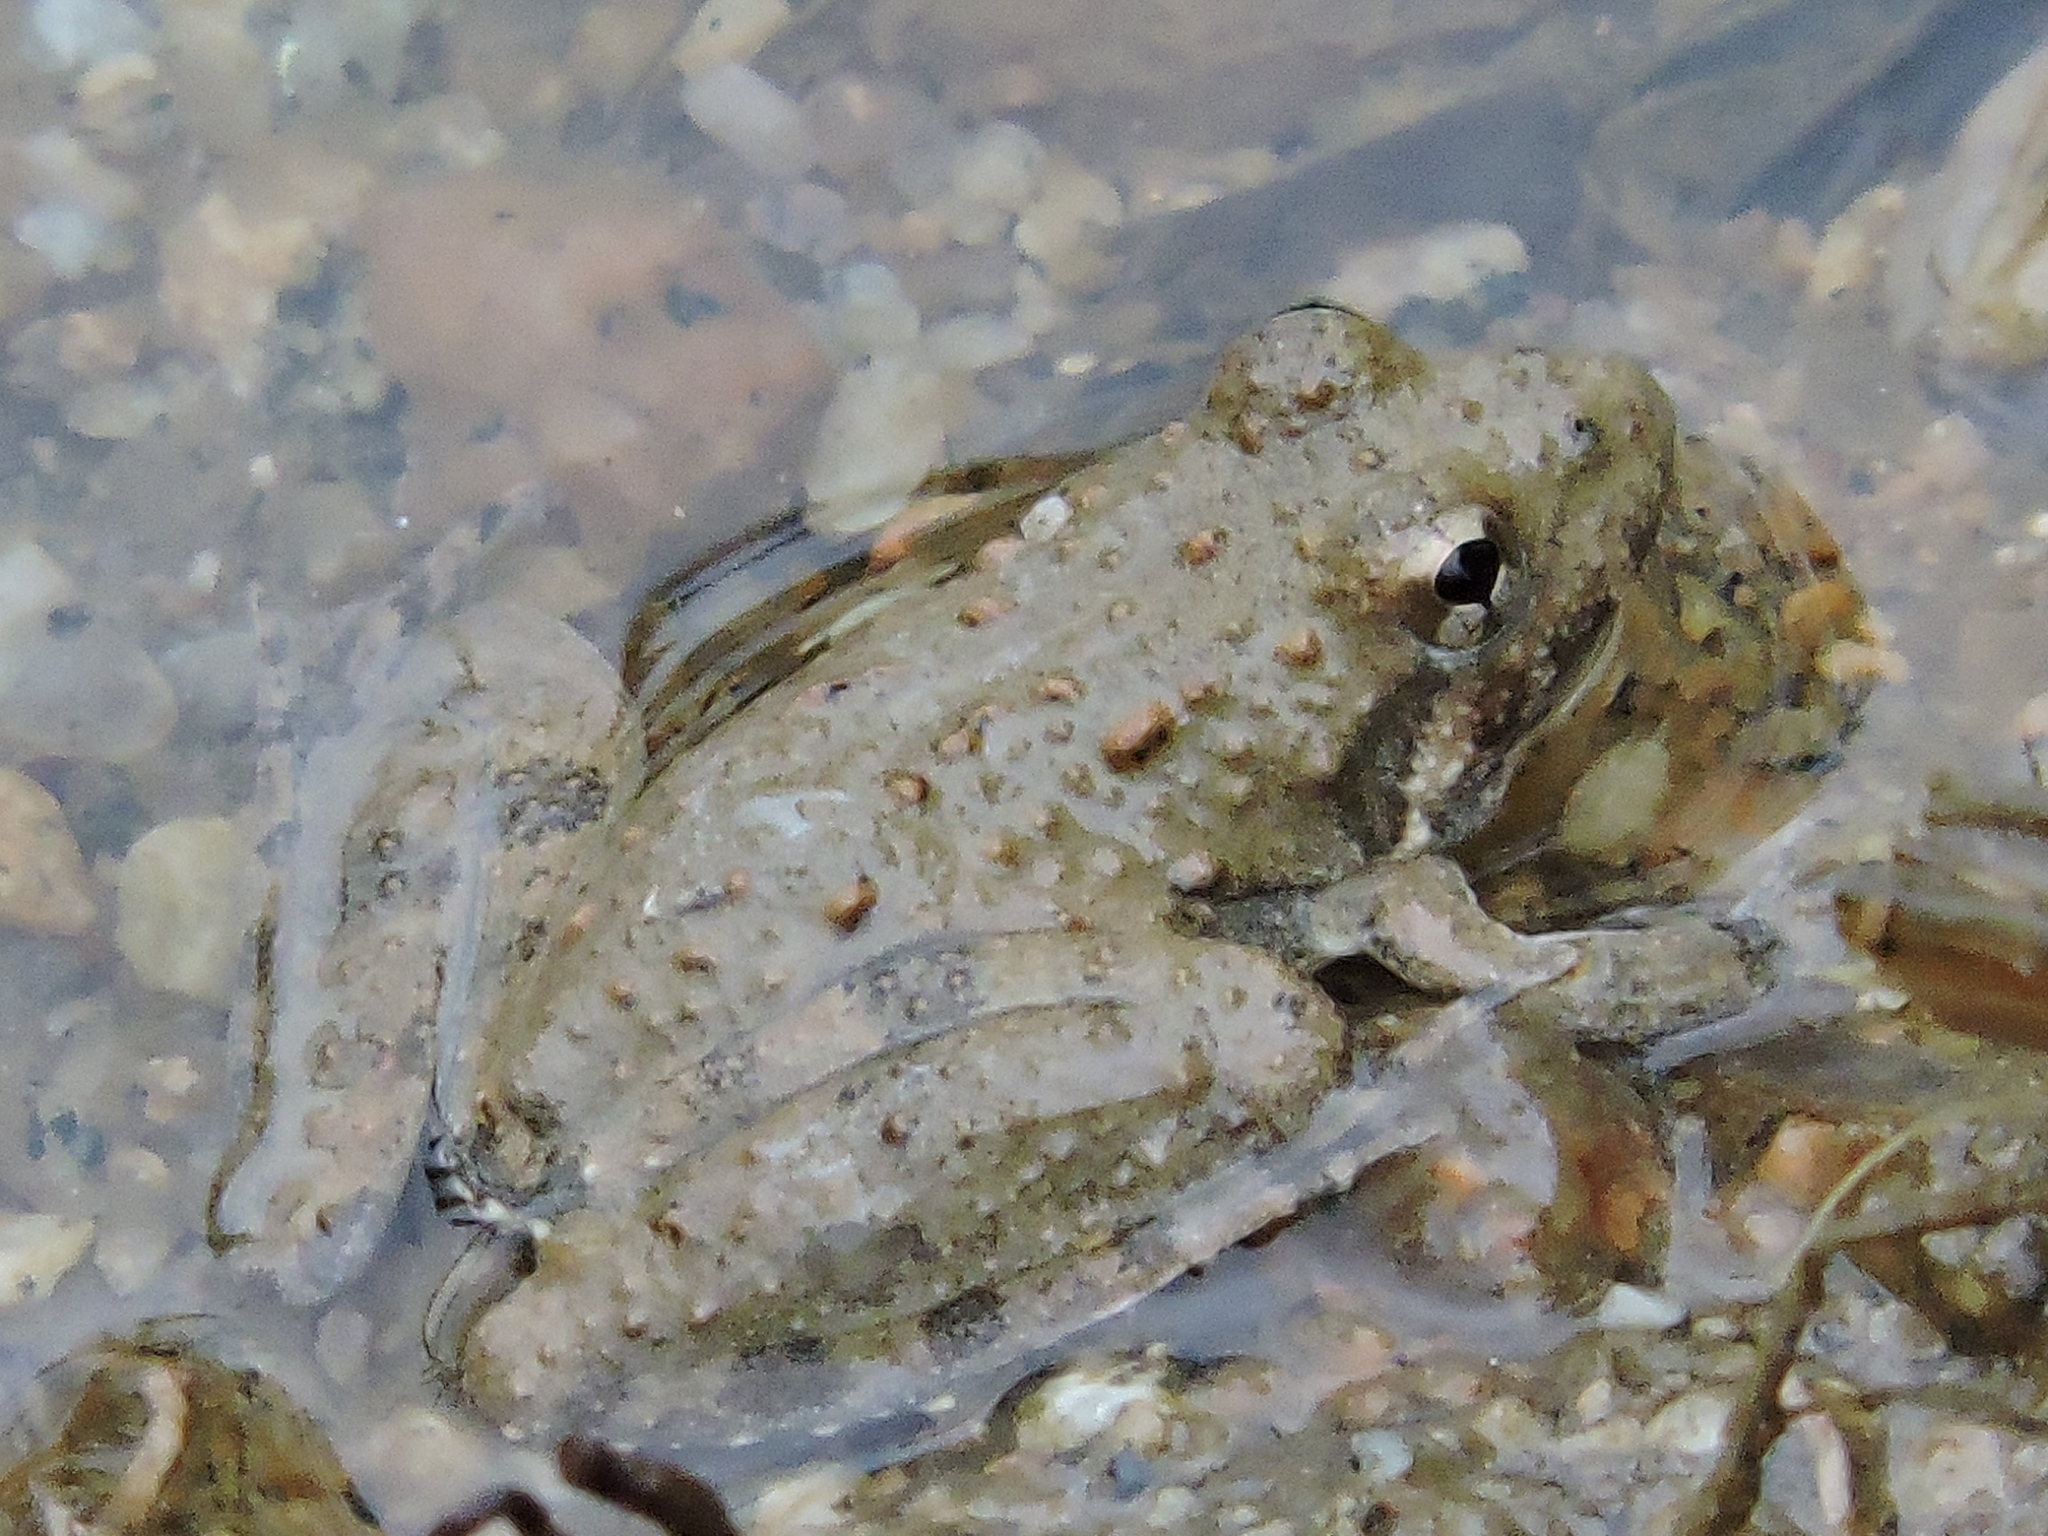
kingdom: Animalia
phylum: Chordata
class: Amphibia
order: Anura
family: Hylidae
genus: Acris
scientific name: Acris blanchardi
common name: Blanchard's cricket frog
